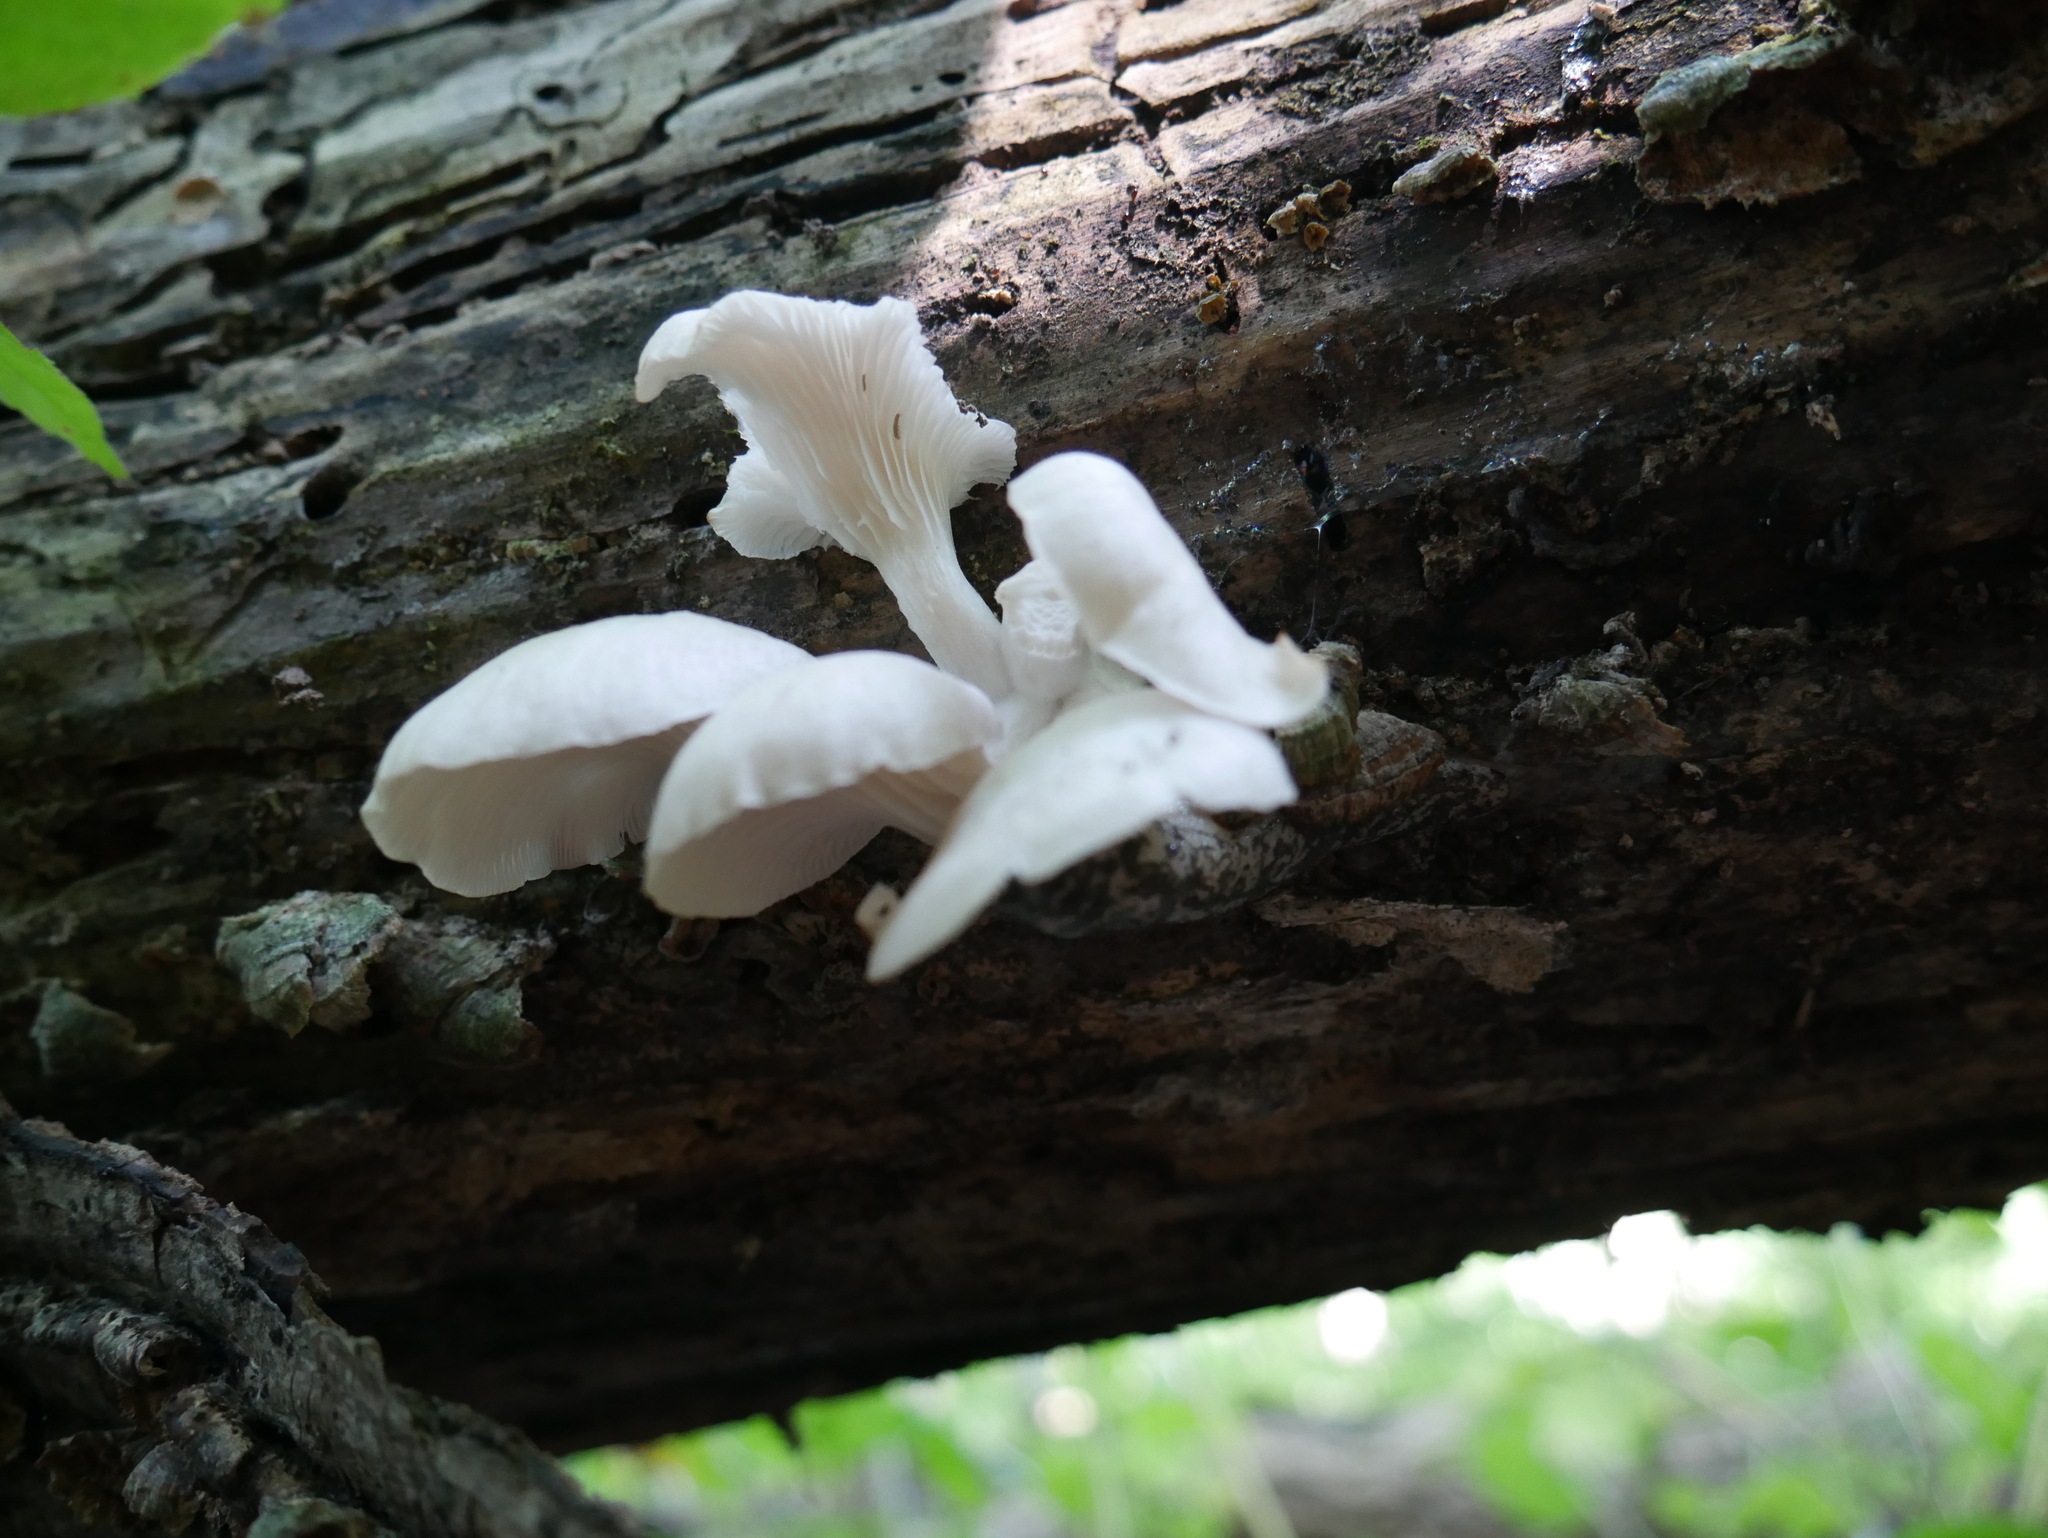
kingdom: Fungi
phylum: Basidiomycota
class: Agaricomycetes
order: Agaricales
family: Pleurotaceae
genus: Pleurotus
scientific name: Pleurotus pulmonarius
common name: Pale oyster
